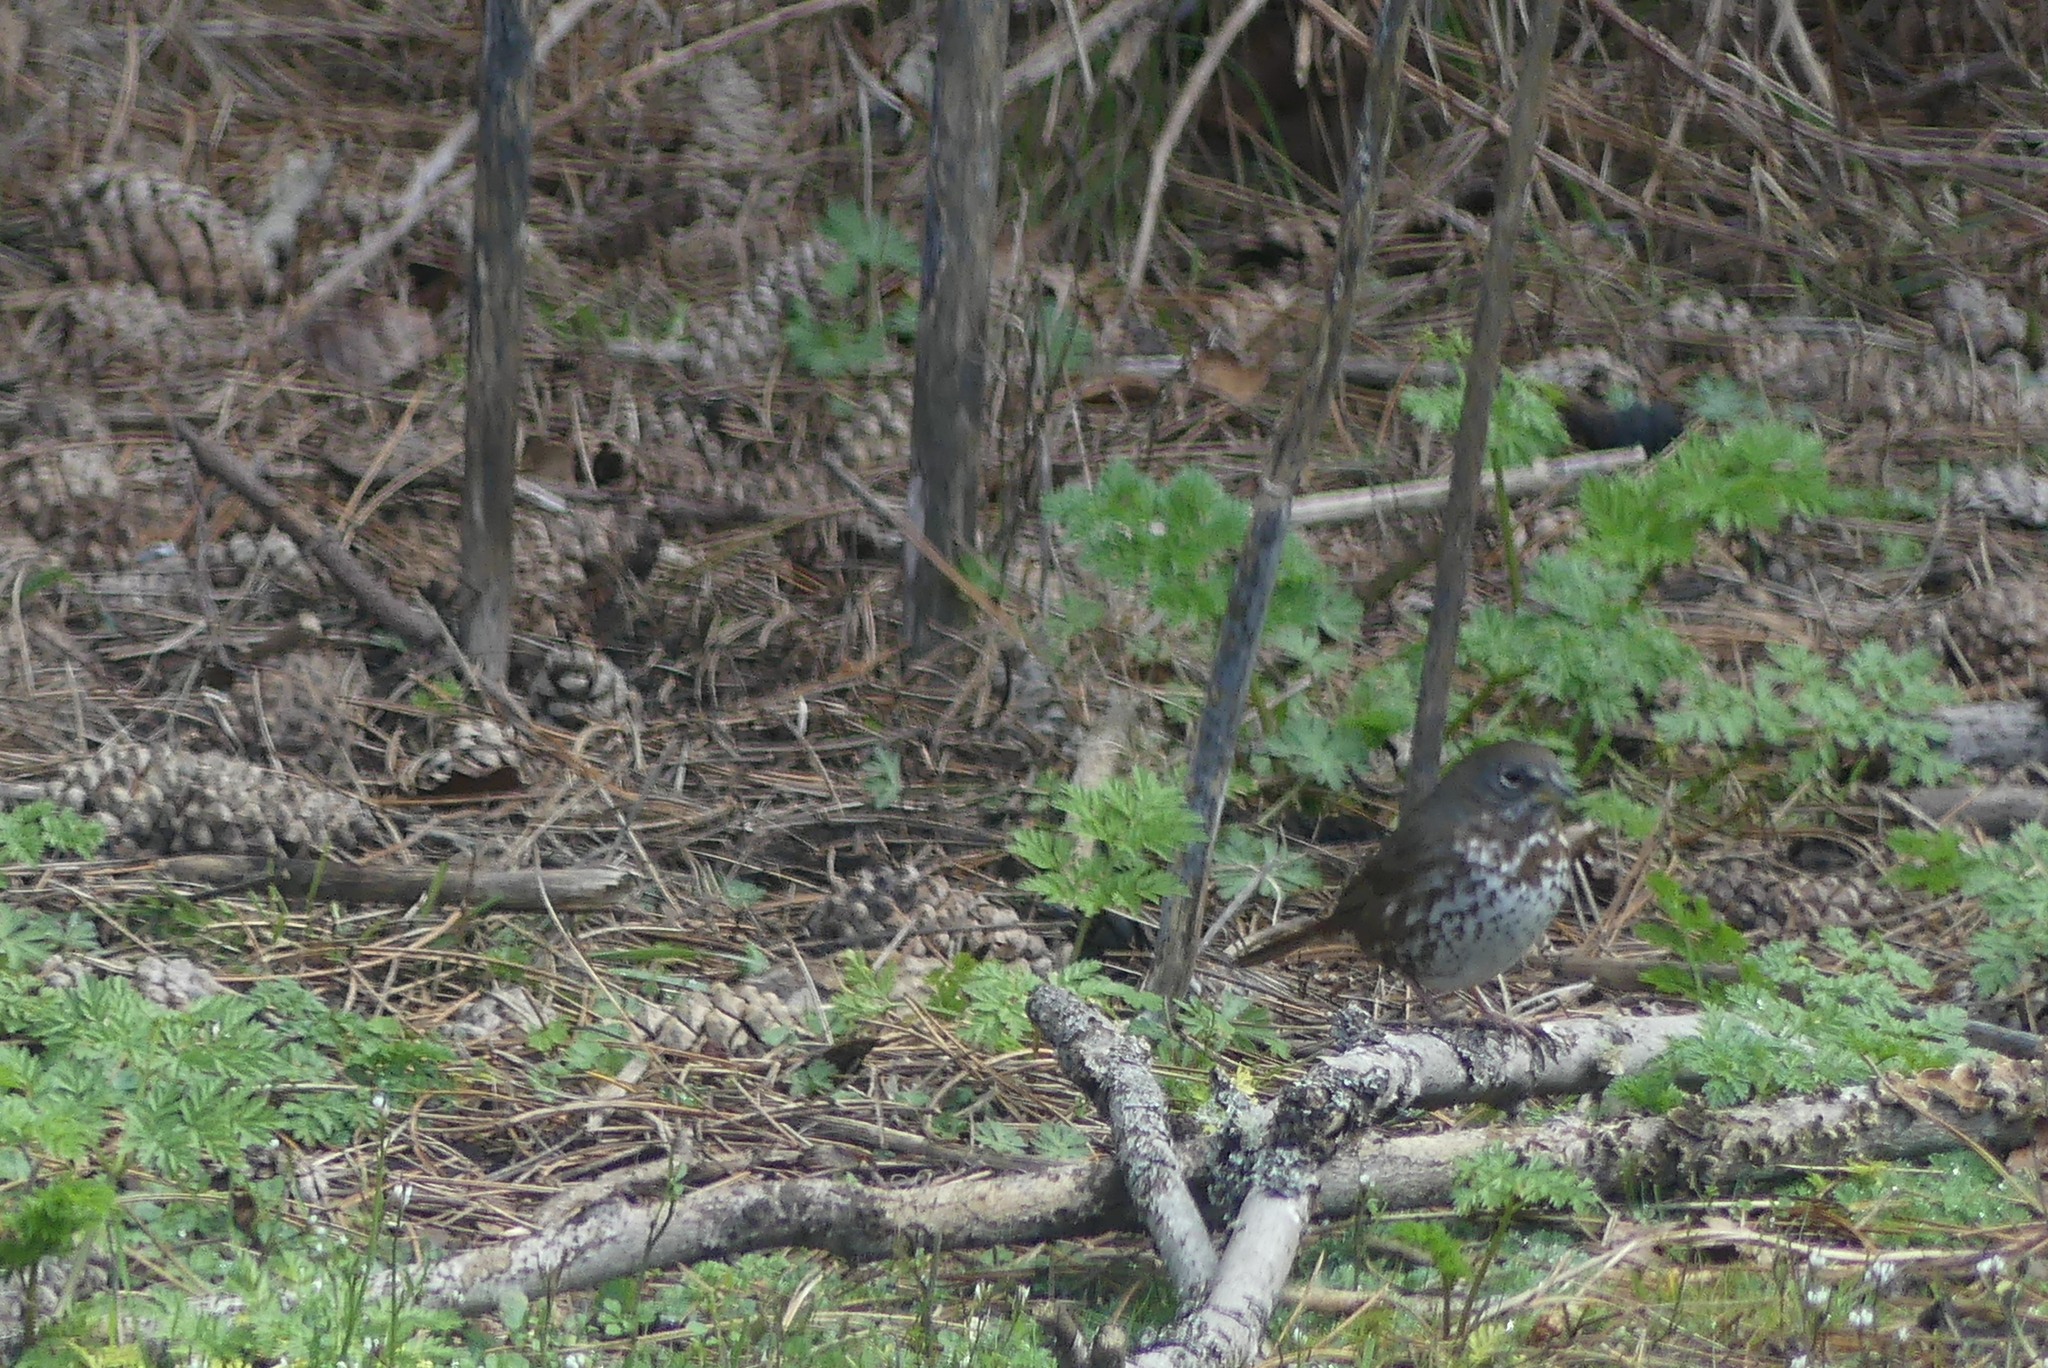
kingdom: Animalia
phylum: Chordata
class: Aves
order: Passeriformes
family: Passerellidae
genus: Passerella
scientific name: Passerella iliaca
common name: Fox sparrow
